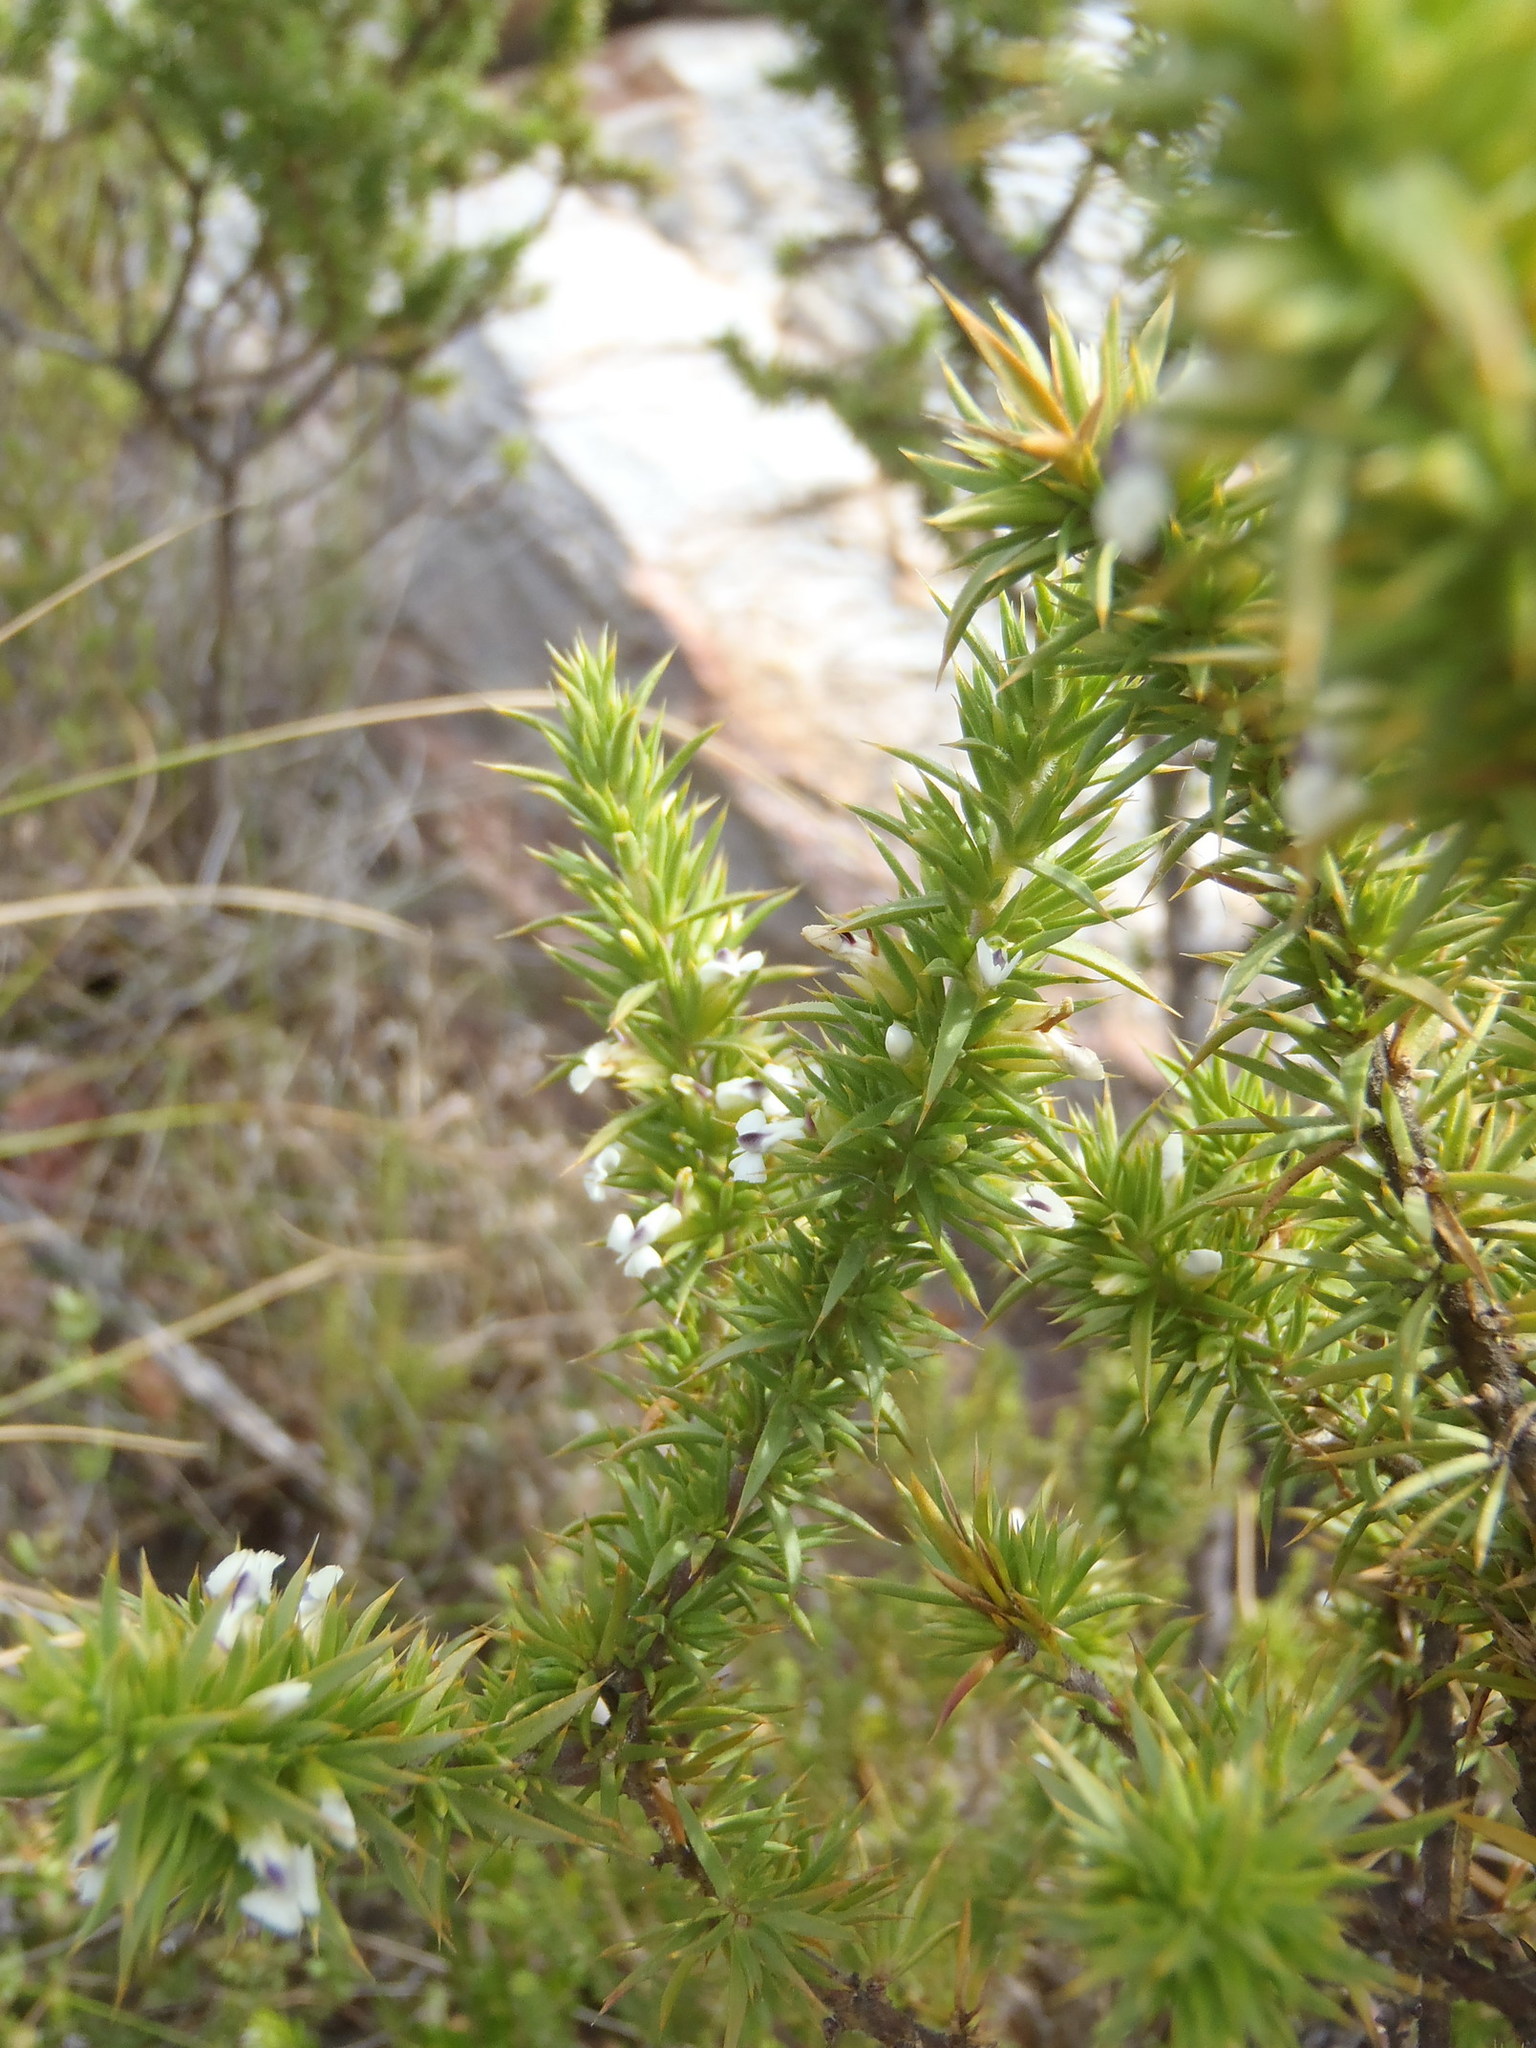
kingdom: Plantae
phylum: Tracheophyta
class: Magnoliopsida
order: Fabales
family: Polygalaceae
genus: Muraltia
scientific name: Muraltia ericifolia
